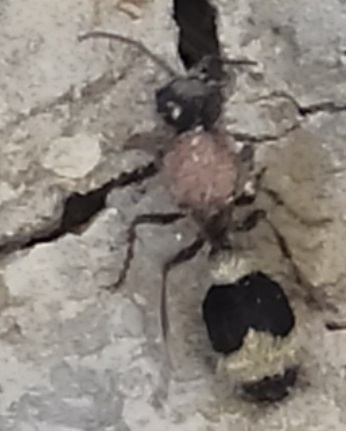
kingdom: Animalia
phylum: Arthropoda
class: Insecta
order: Hymenoptera
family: Mutillidae
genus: Stenomutilla
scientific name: Stenomutilla argentata
